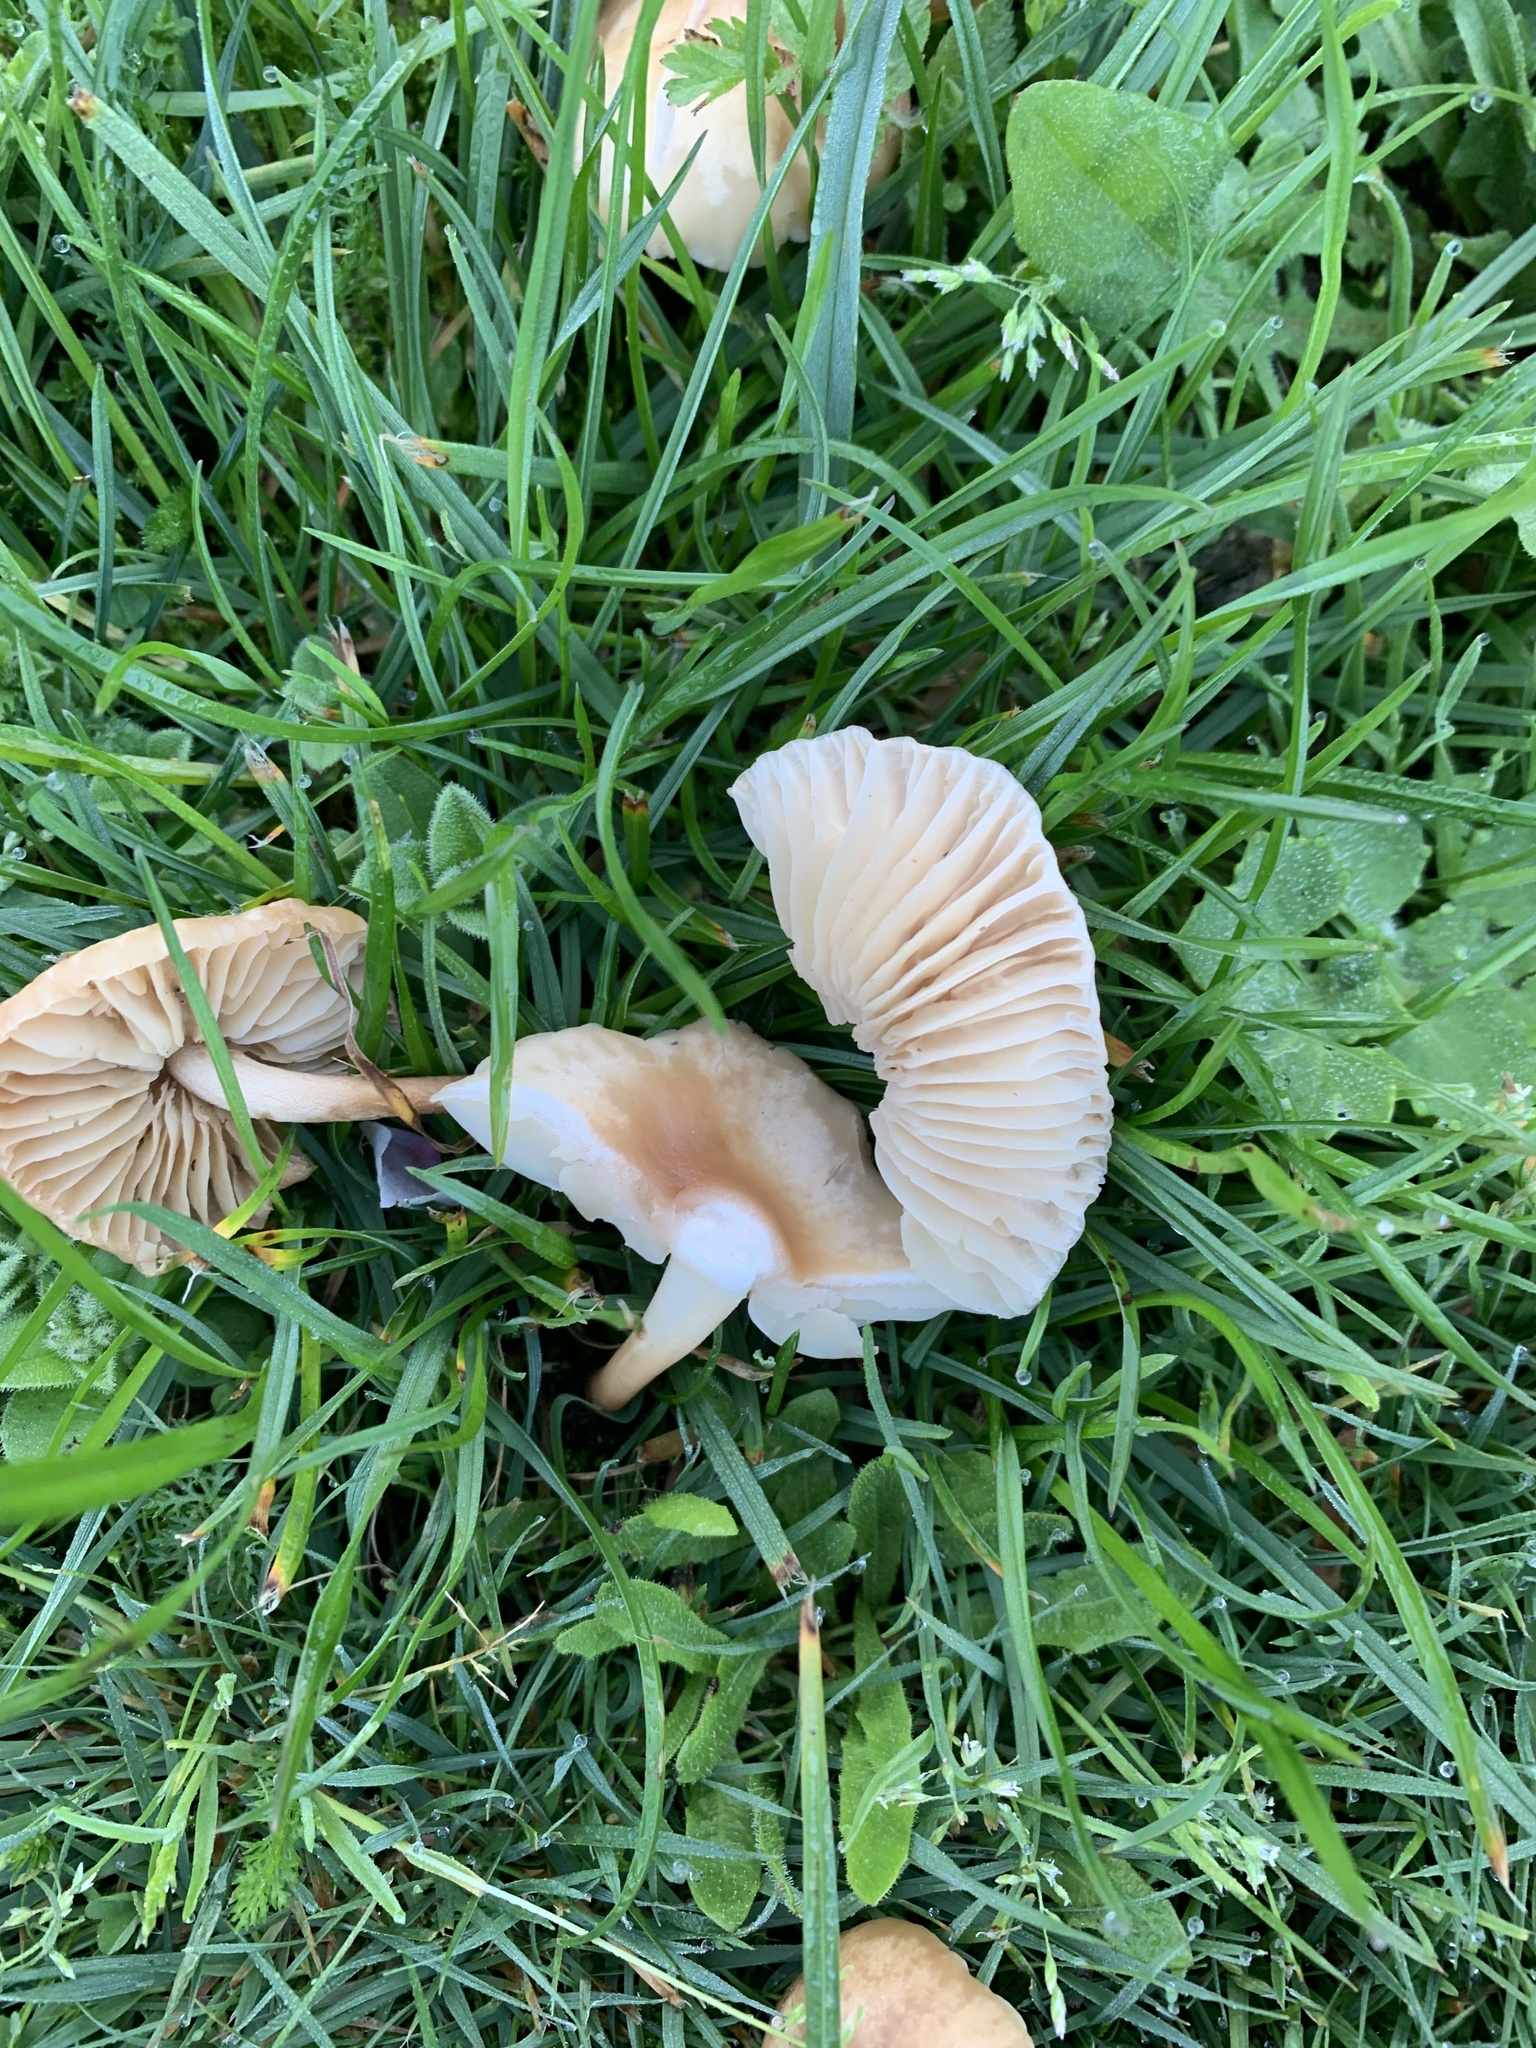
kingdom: Fungi
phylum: Basidiomycota
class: Agaricomycetes
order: Agaricales
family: Marasmiaceae
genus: Marasmius
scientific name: Marasmius oreades
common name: Fairy ring champignon
